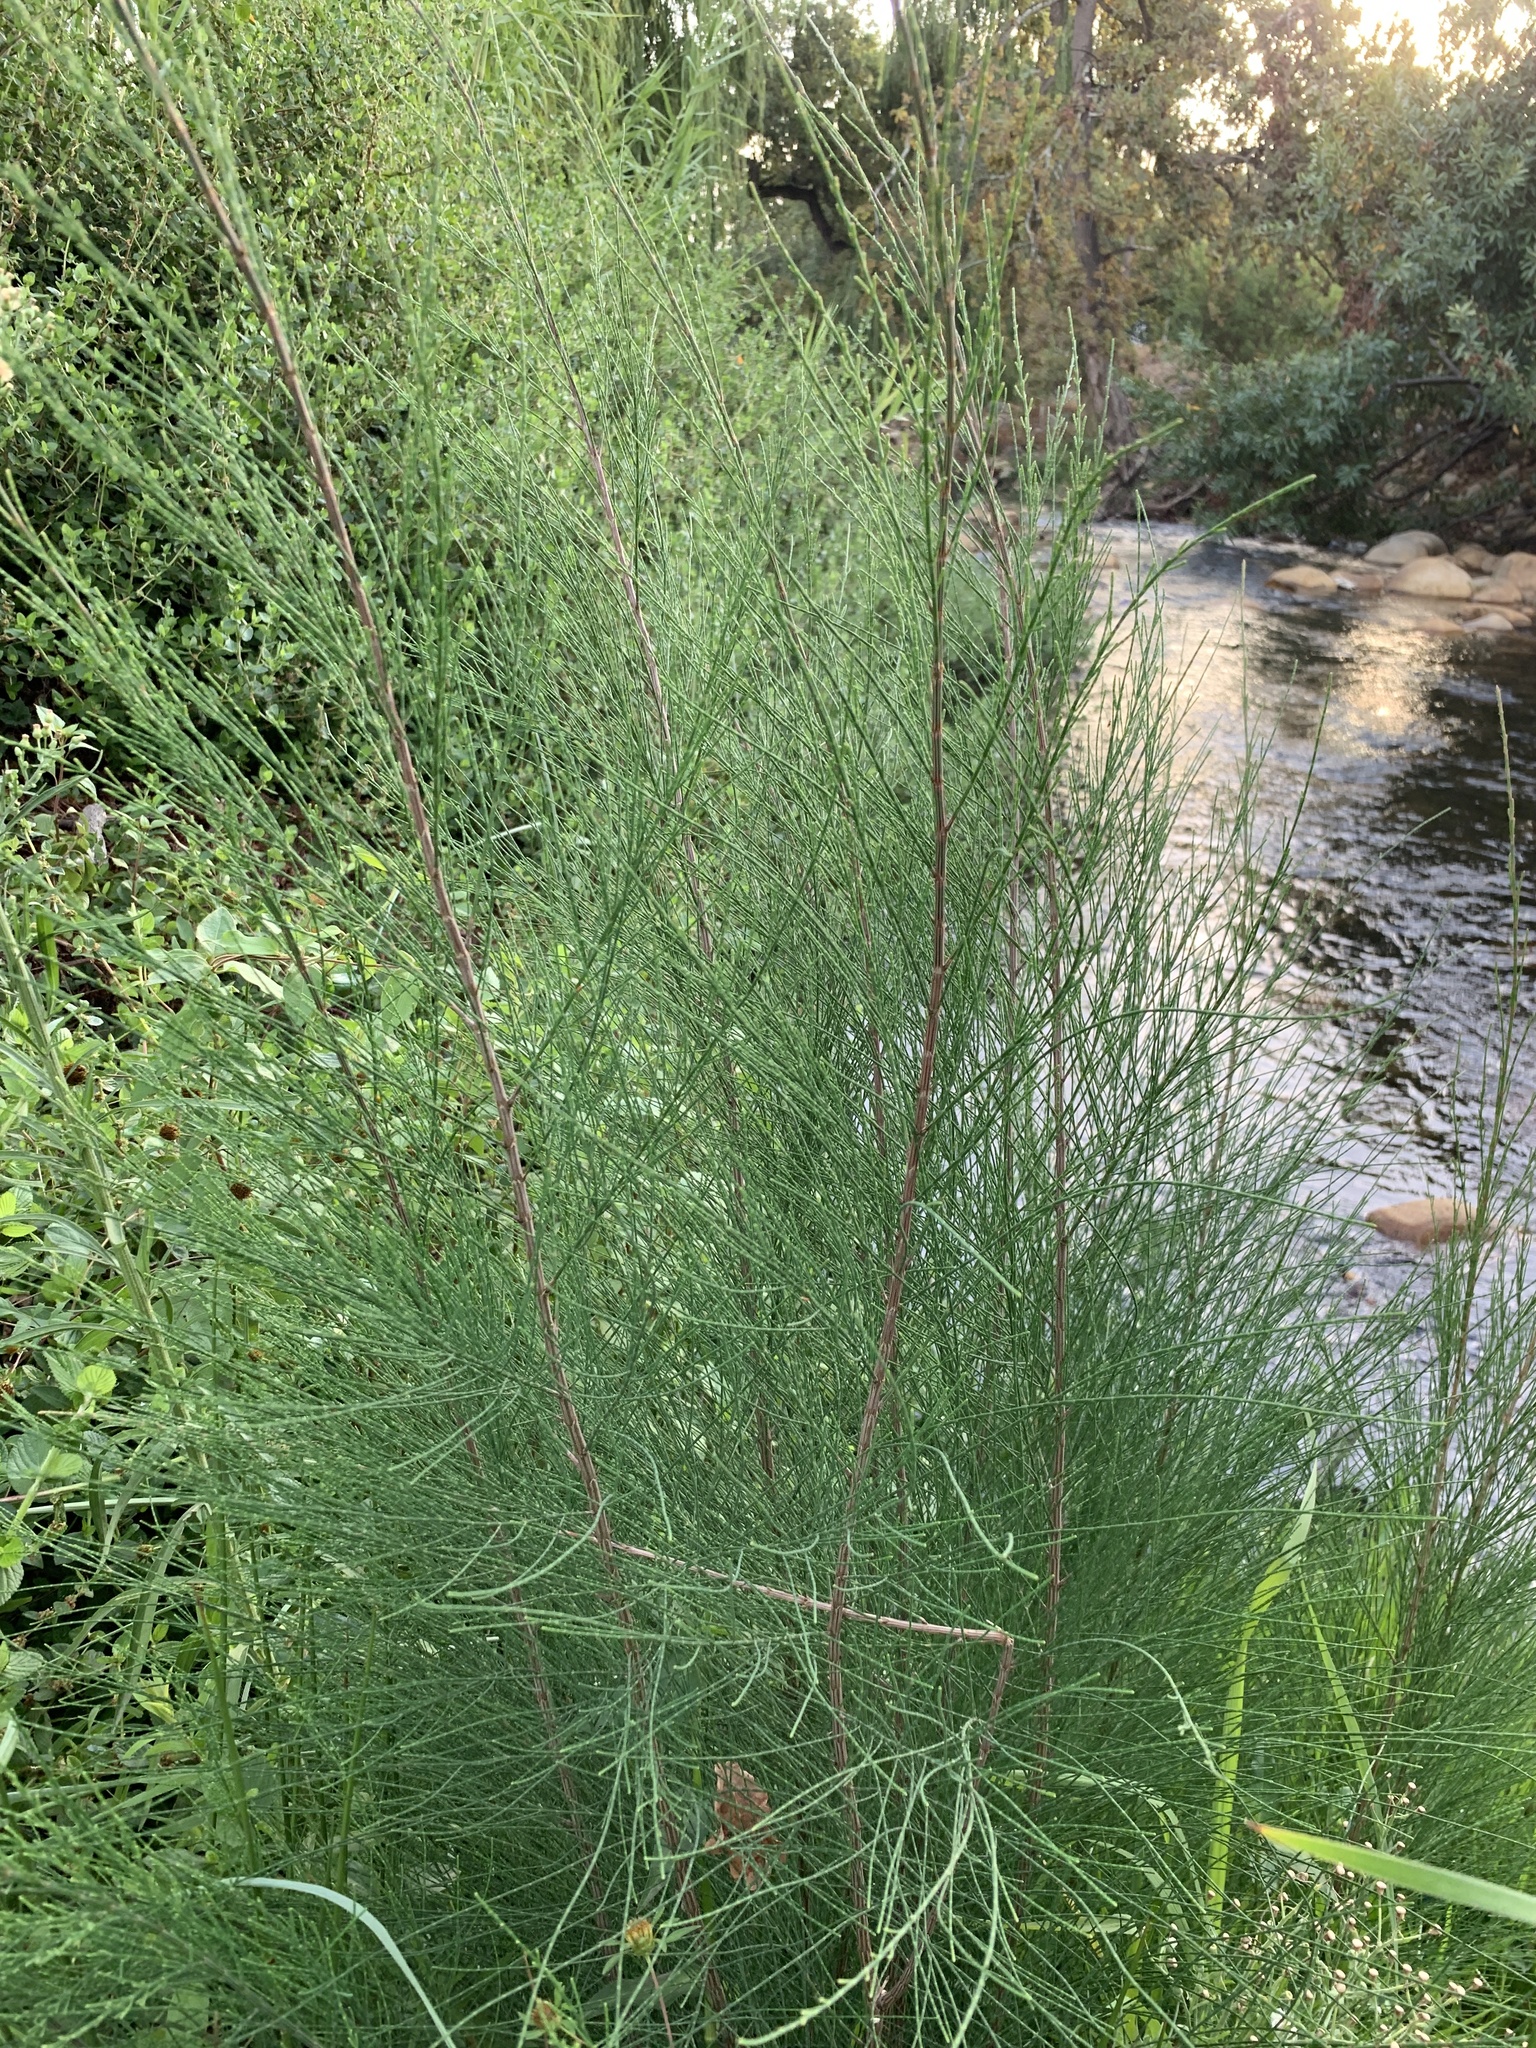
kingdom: Plantae
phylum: Tracheophyta
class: Magnoliopsida
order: Fagales
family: Casuarinaceae
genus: Casuarina
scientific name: Casuarina cunninghamiana
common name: River sheoak
